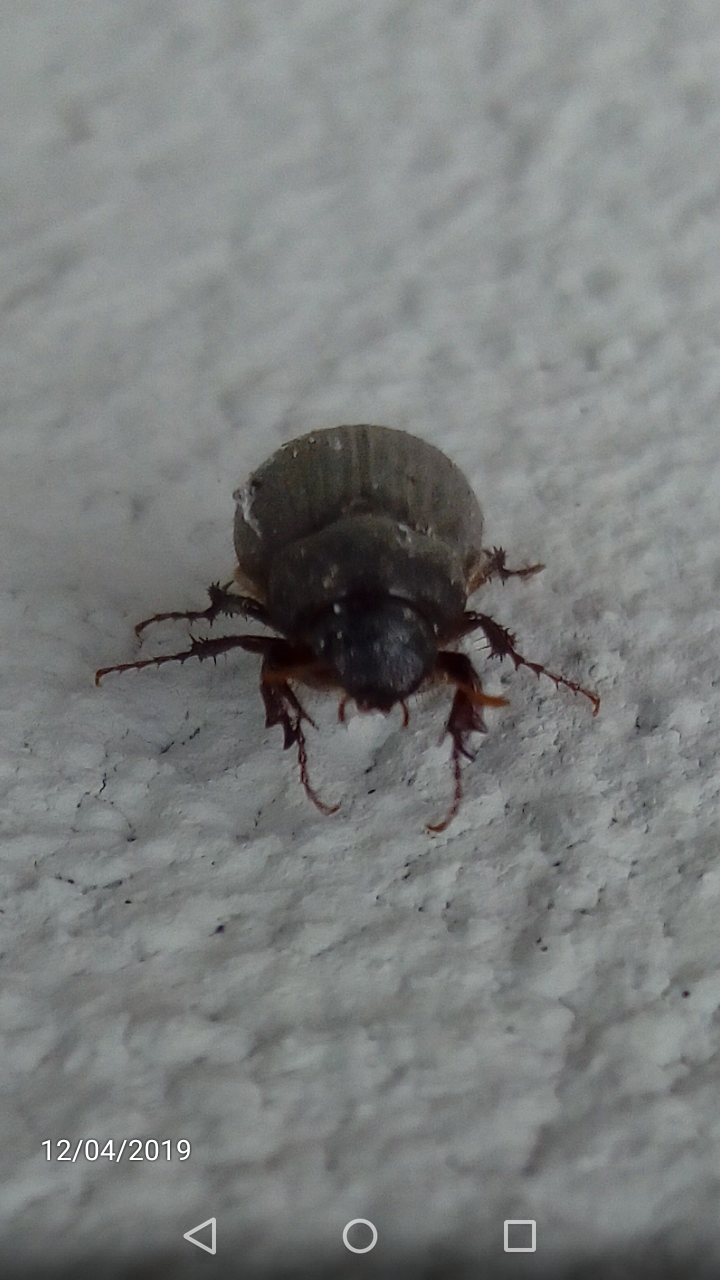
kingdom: Animalia
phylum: Arthropoda
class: Insecta
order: Coleoptera
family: Scarabaeidae
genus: Maladera
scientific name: Maladera holosericea
